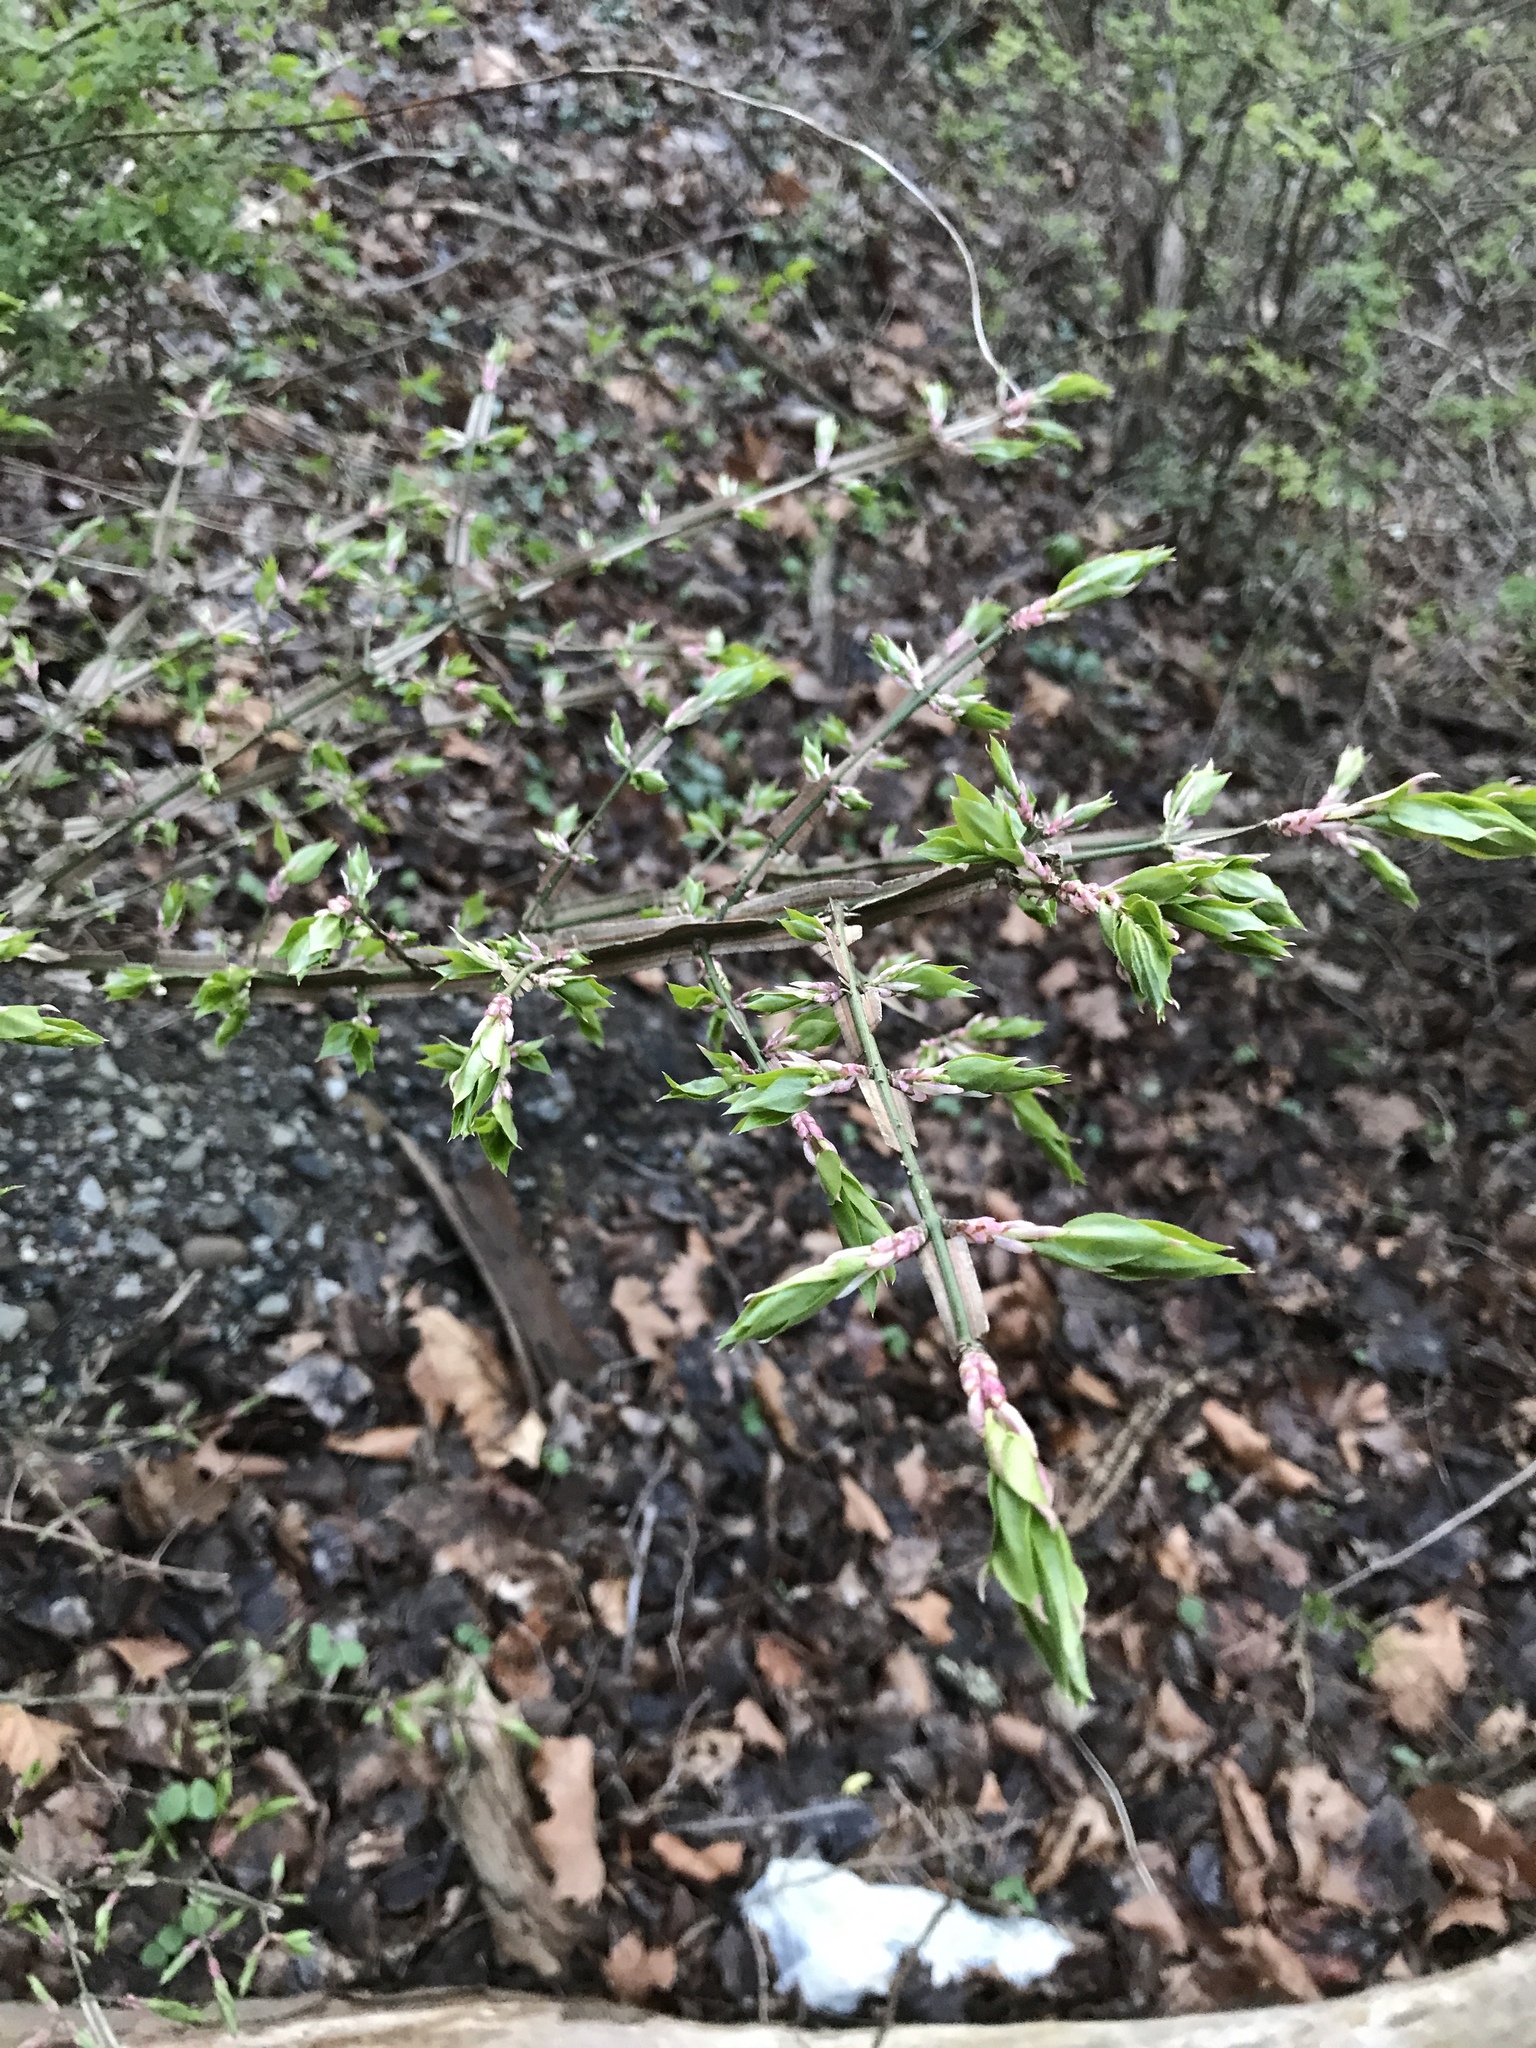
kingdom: Plantae
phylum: Tracheophyta
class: Magnoliopsida
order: Celastrales
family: Celastraceae
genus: Euonymus
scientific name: Euonymus alatus
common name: Winged euonymus
